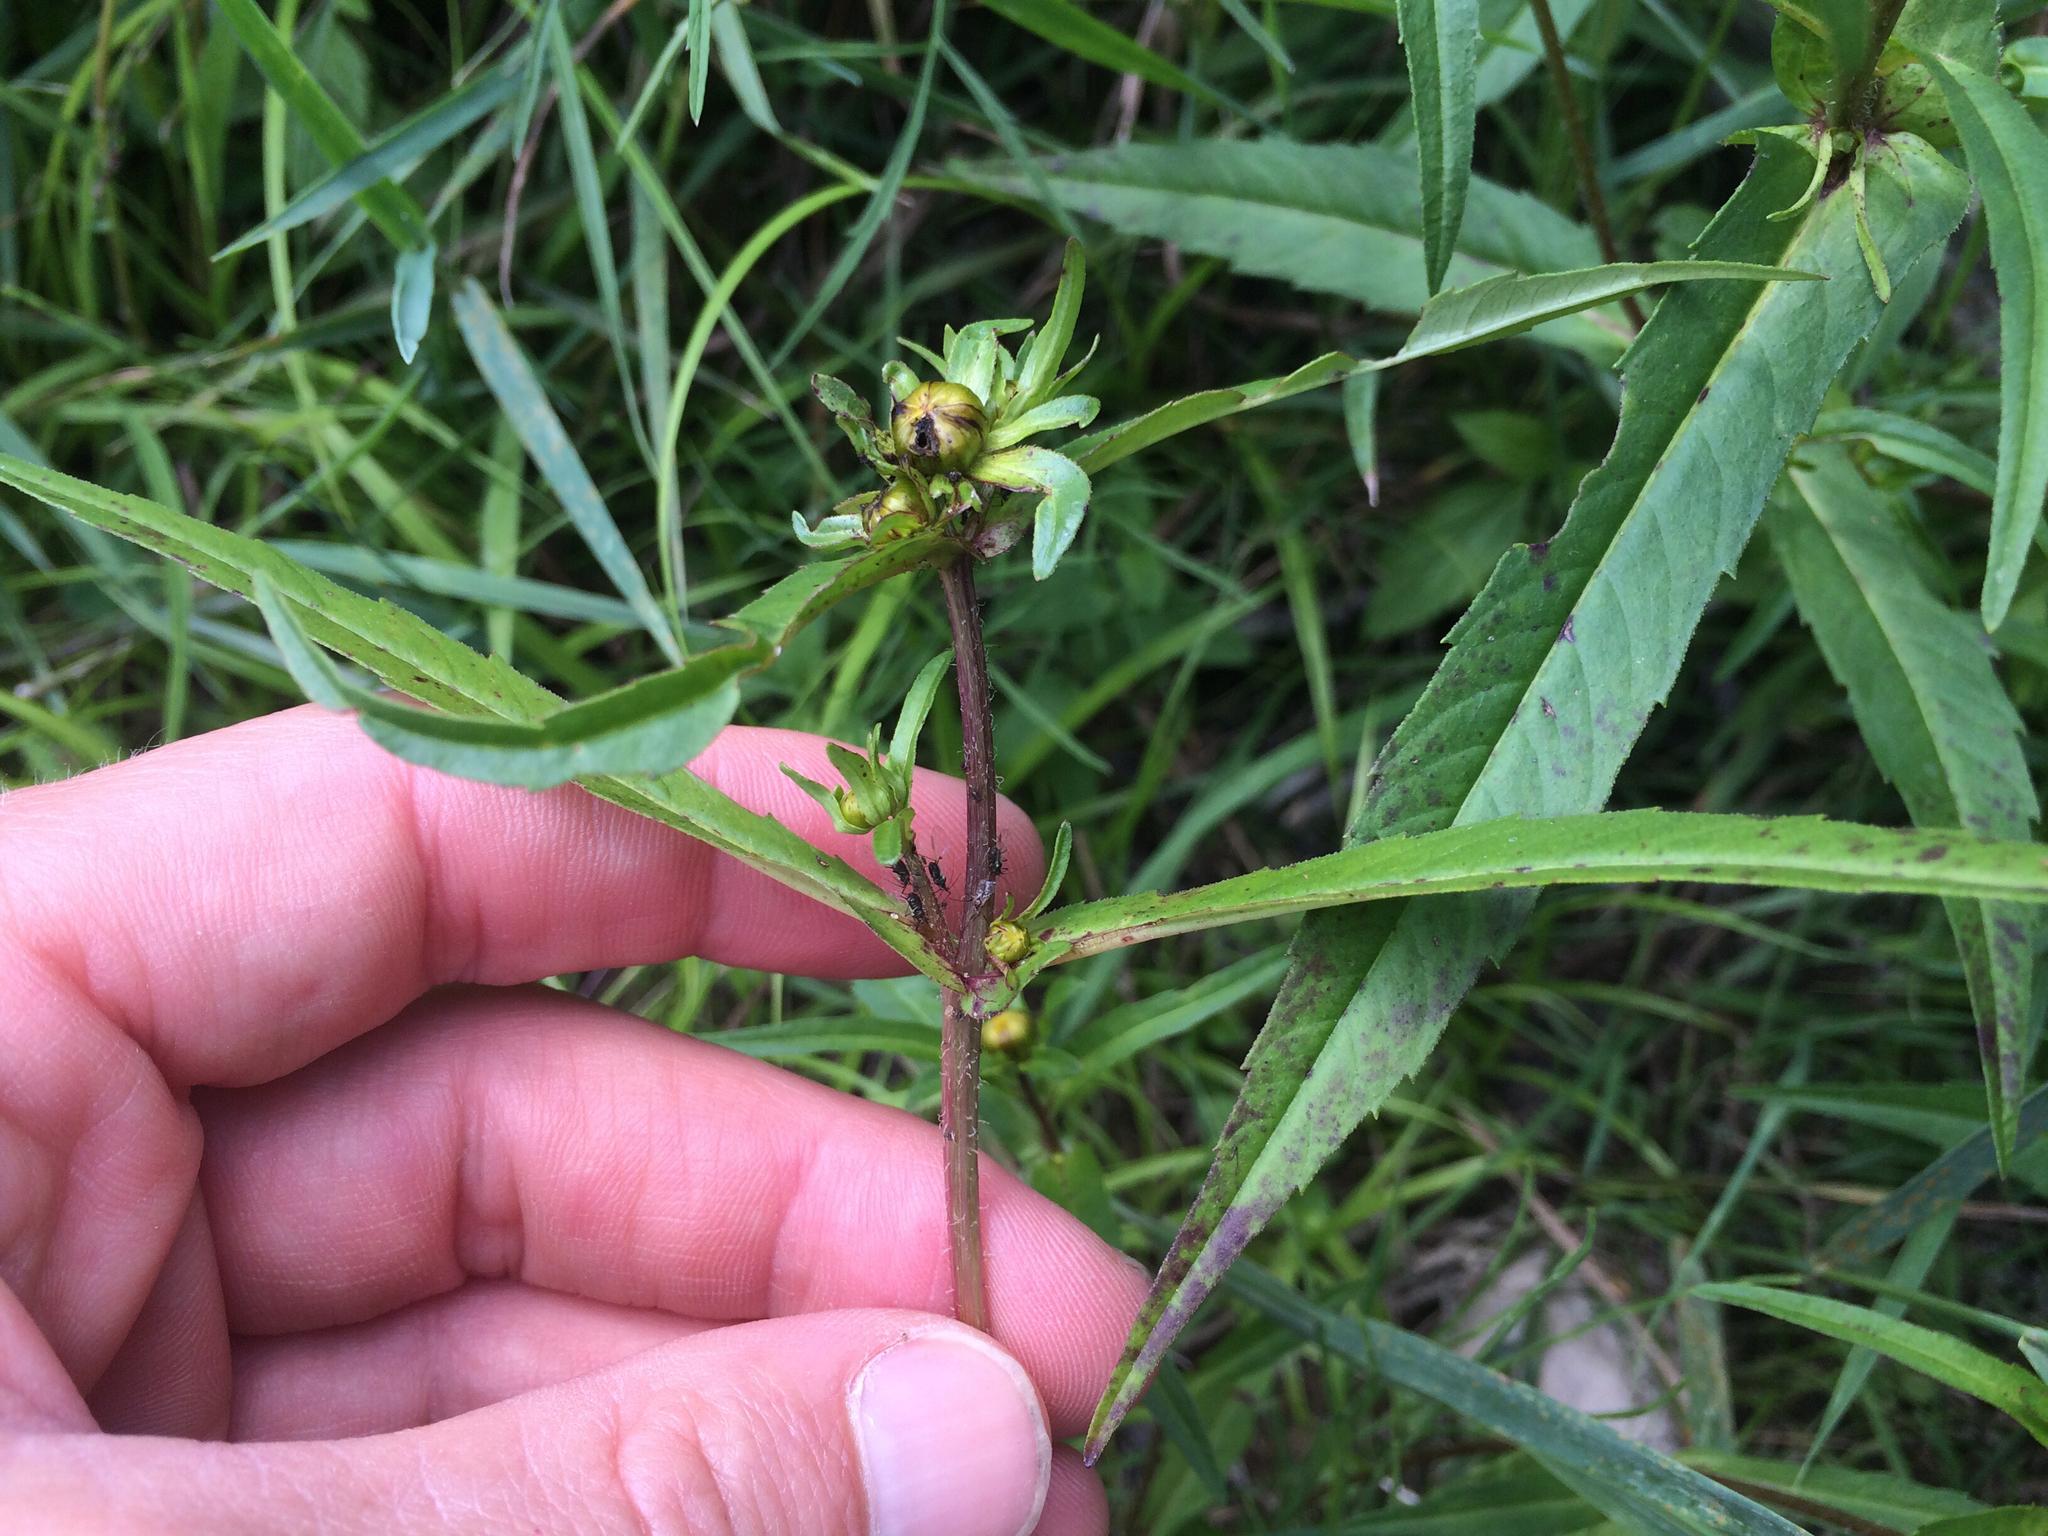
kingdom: Plantae
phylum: Tracheophyta
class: Magnoliopsida
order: Asterales
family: Asteraceae
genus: Bidens
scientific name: Bidens cernua
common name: Nodding bur-marigold
